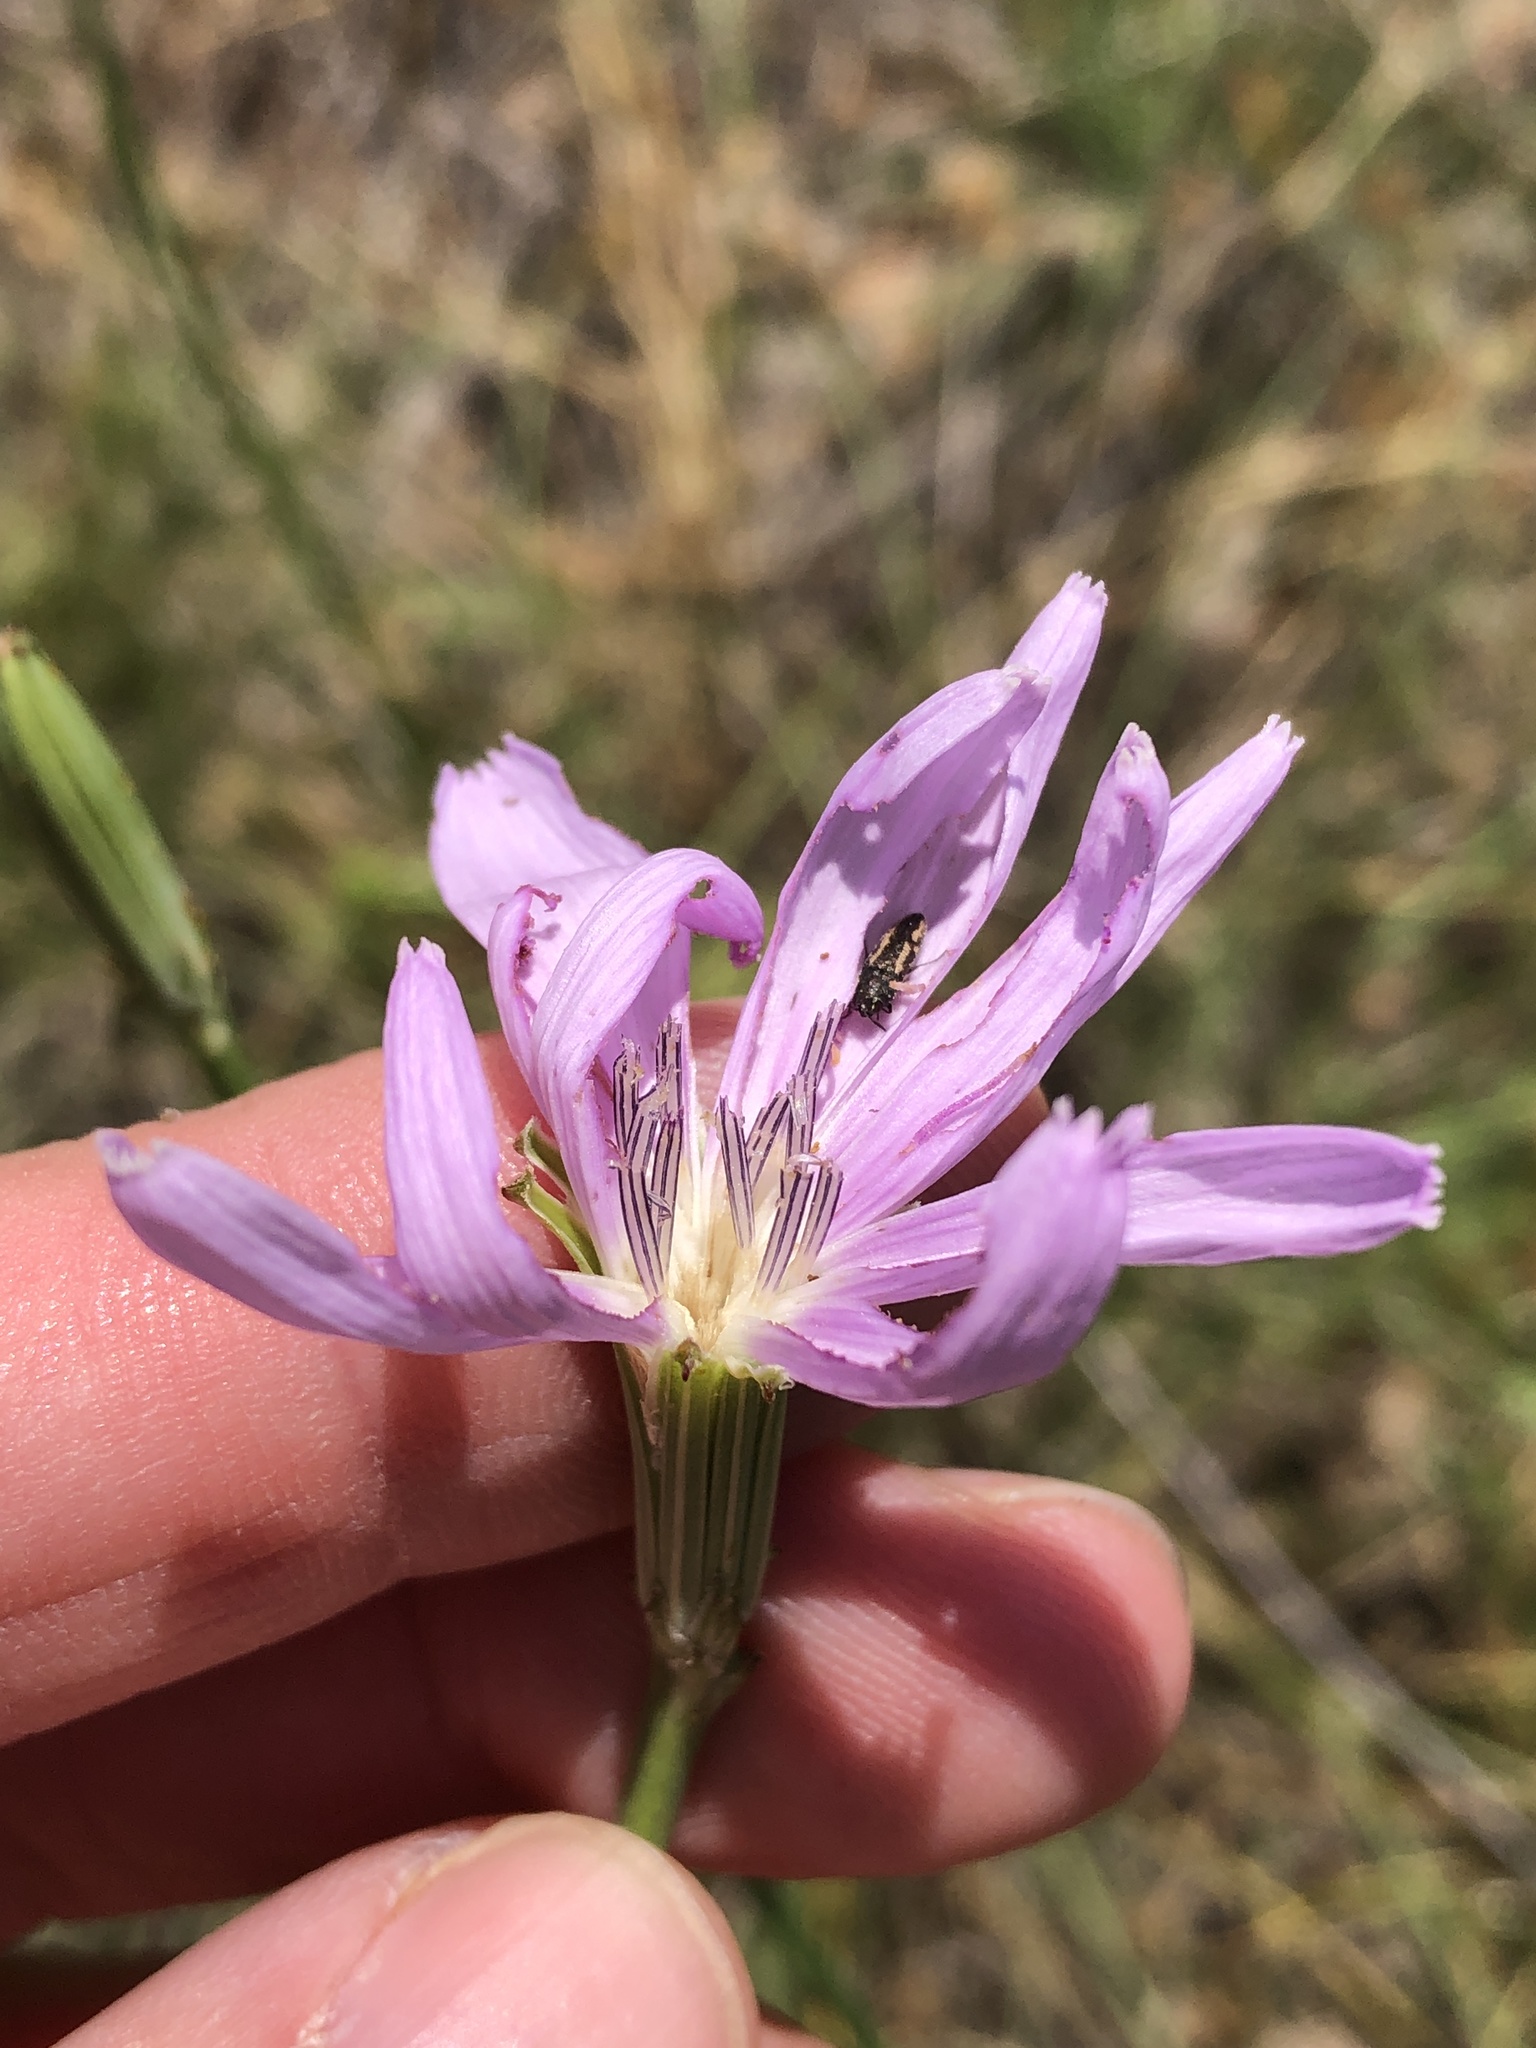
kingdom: Plantae
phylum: Tracheophyta
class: Magnoliopsida
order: Asterales
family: Asteraceae
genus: Lygodesmia
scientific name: Lygodesmia texana
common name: Texas skeleton-plant
